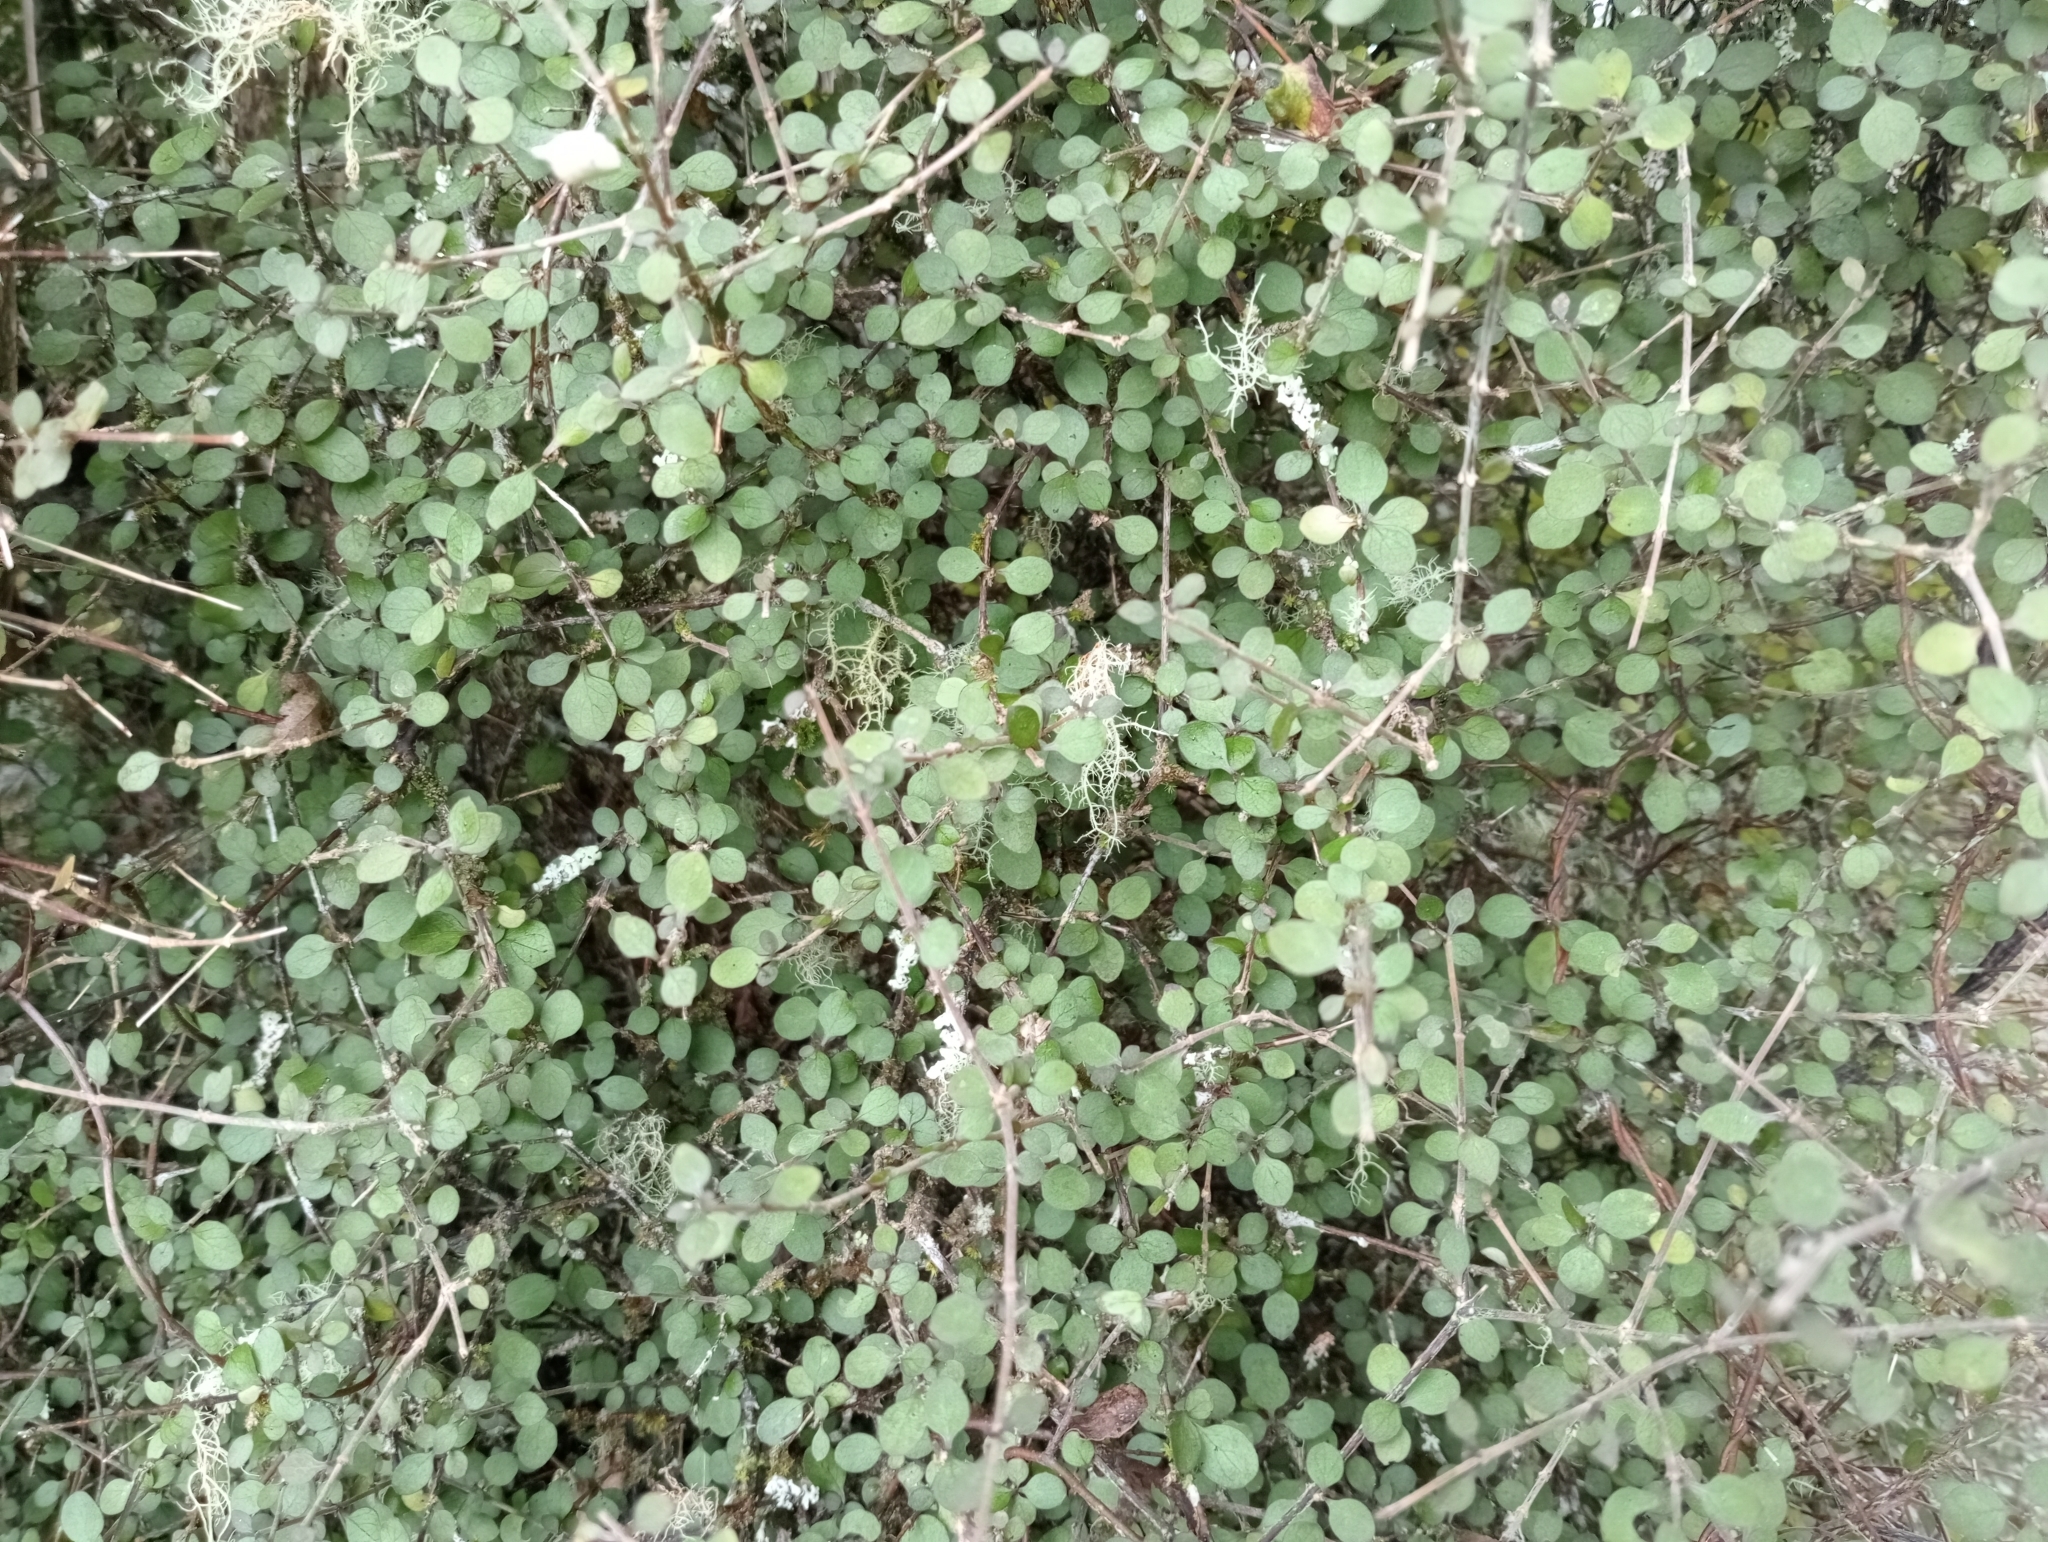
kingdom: Plantae
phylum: Tracheophyta
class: Magnoliopsida
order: Gentianales
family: Rubiaceae
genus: Coprosma
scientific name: Coprosma rubra
